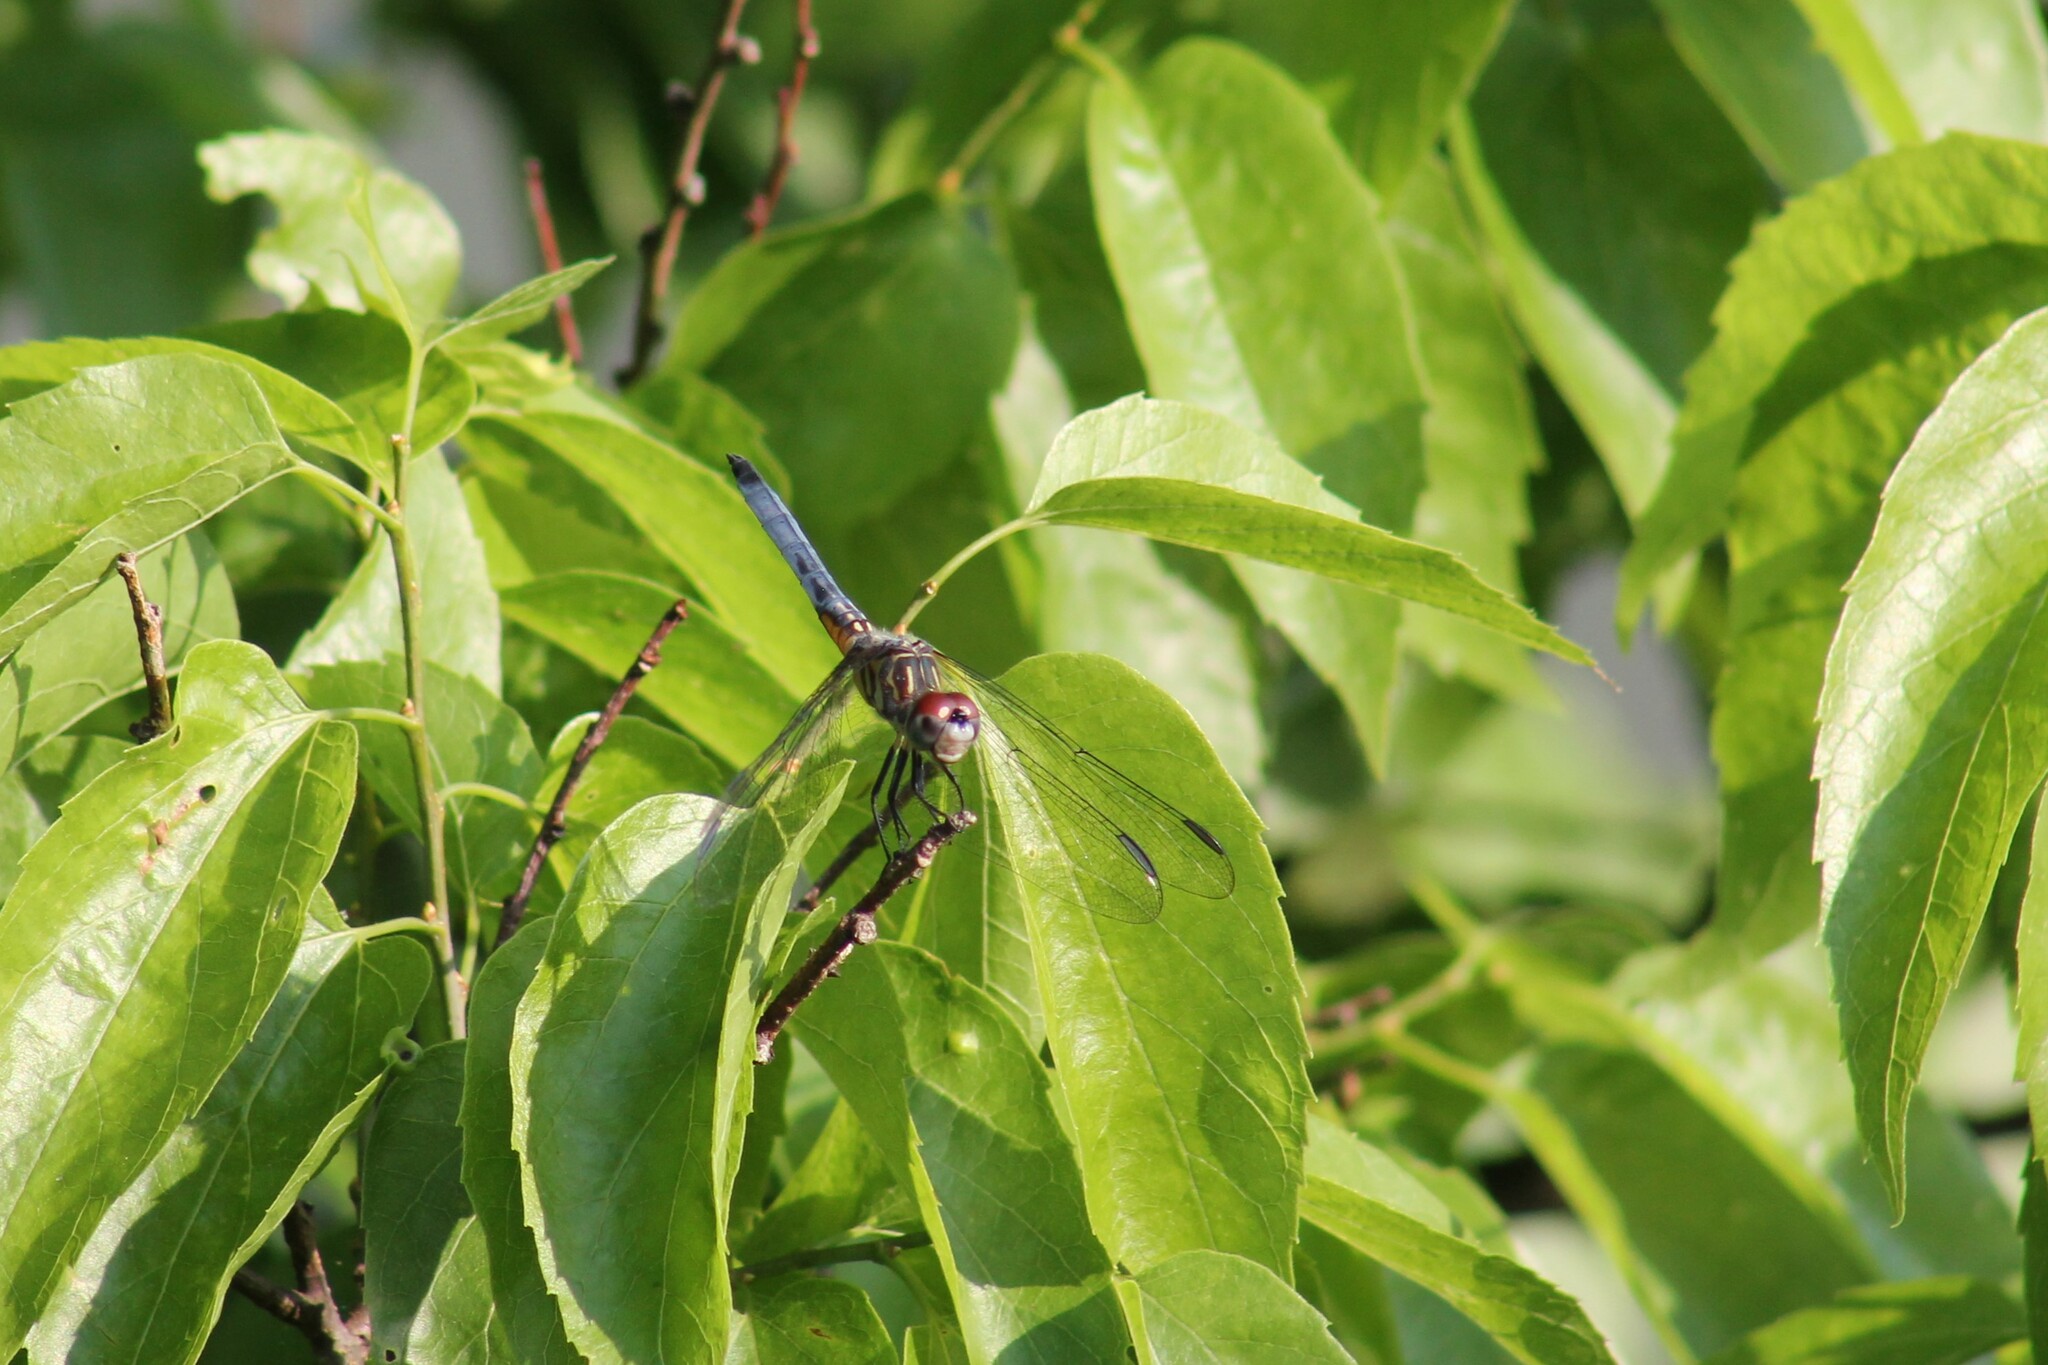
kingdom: Animalia
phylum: Arthropoda
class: Insecta
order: Odonata
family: Libellulidae
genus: Pachydiplax
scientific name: Pachydiplax longipennis
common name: Blue dasher
